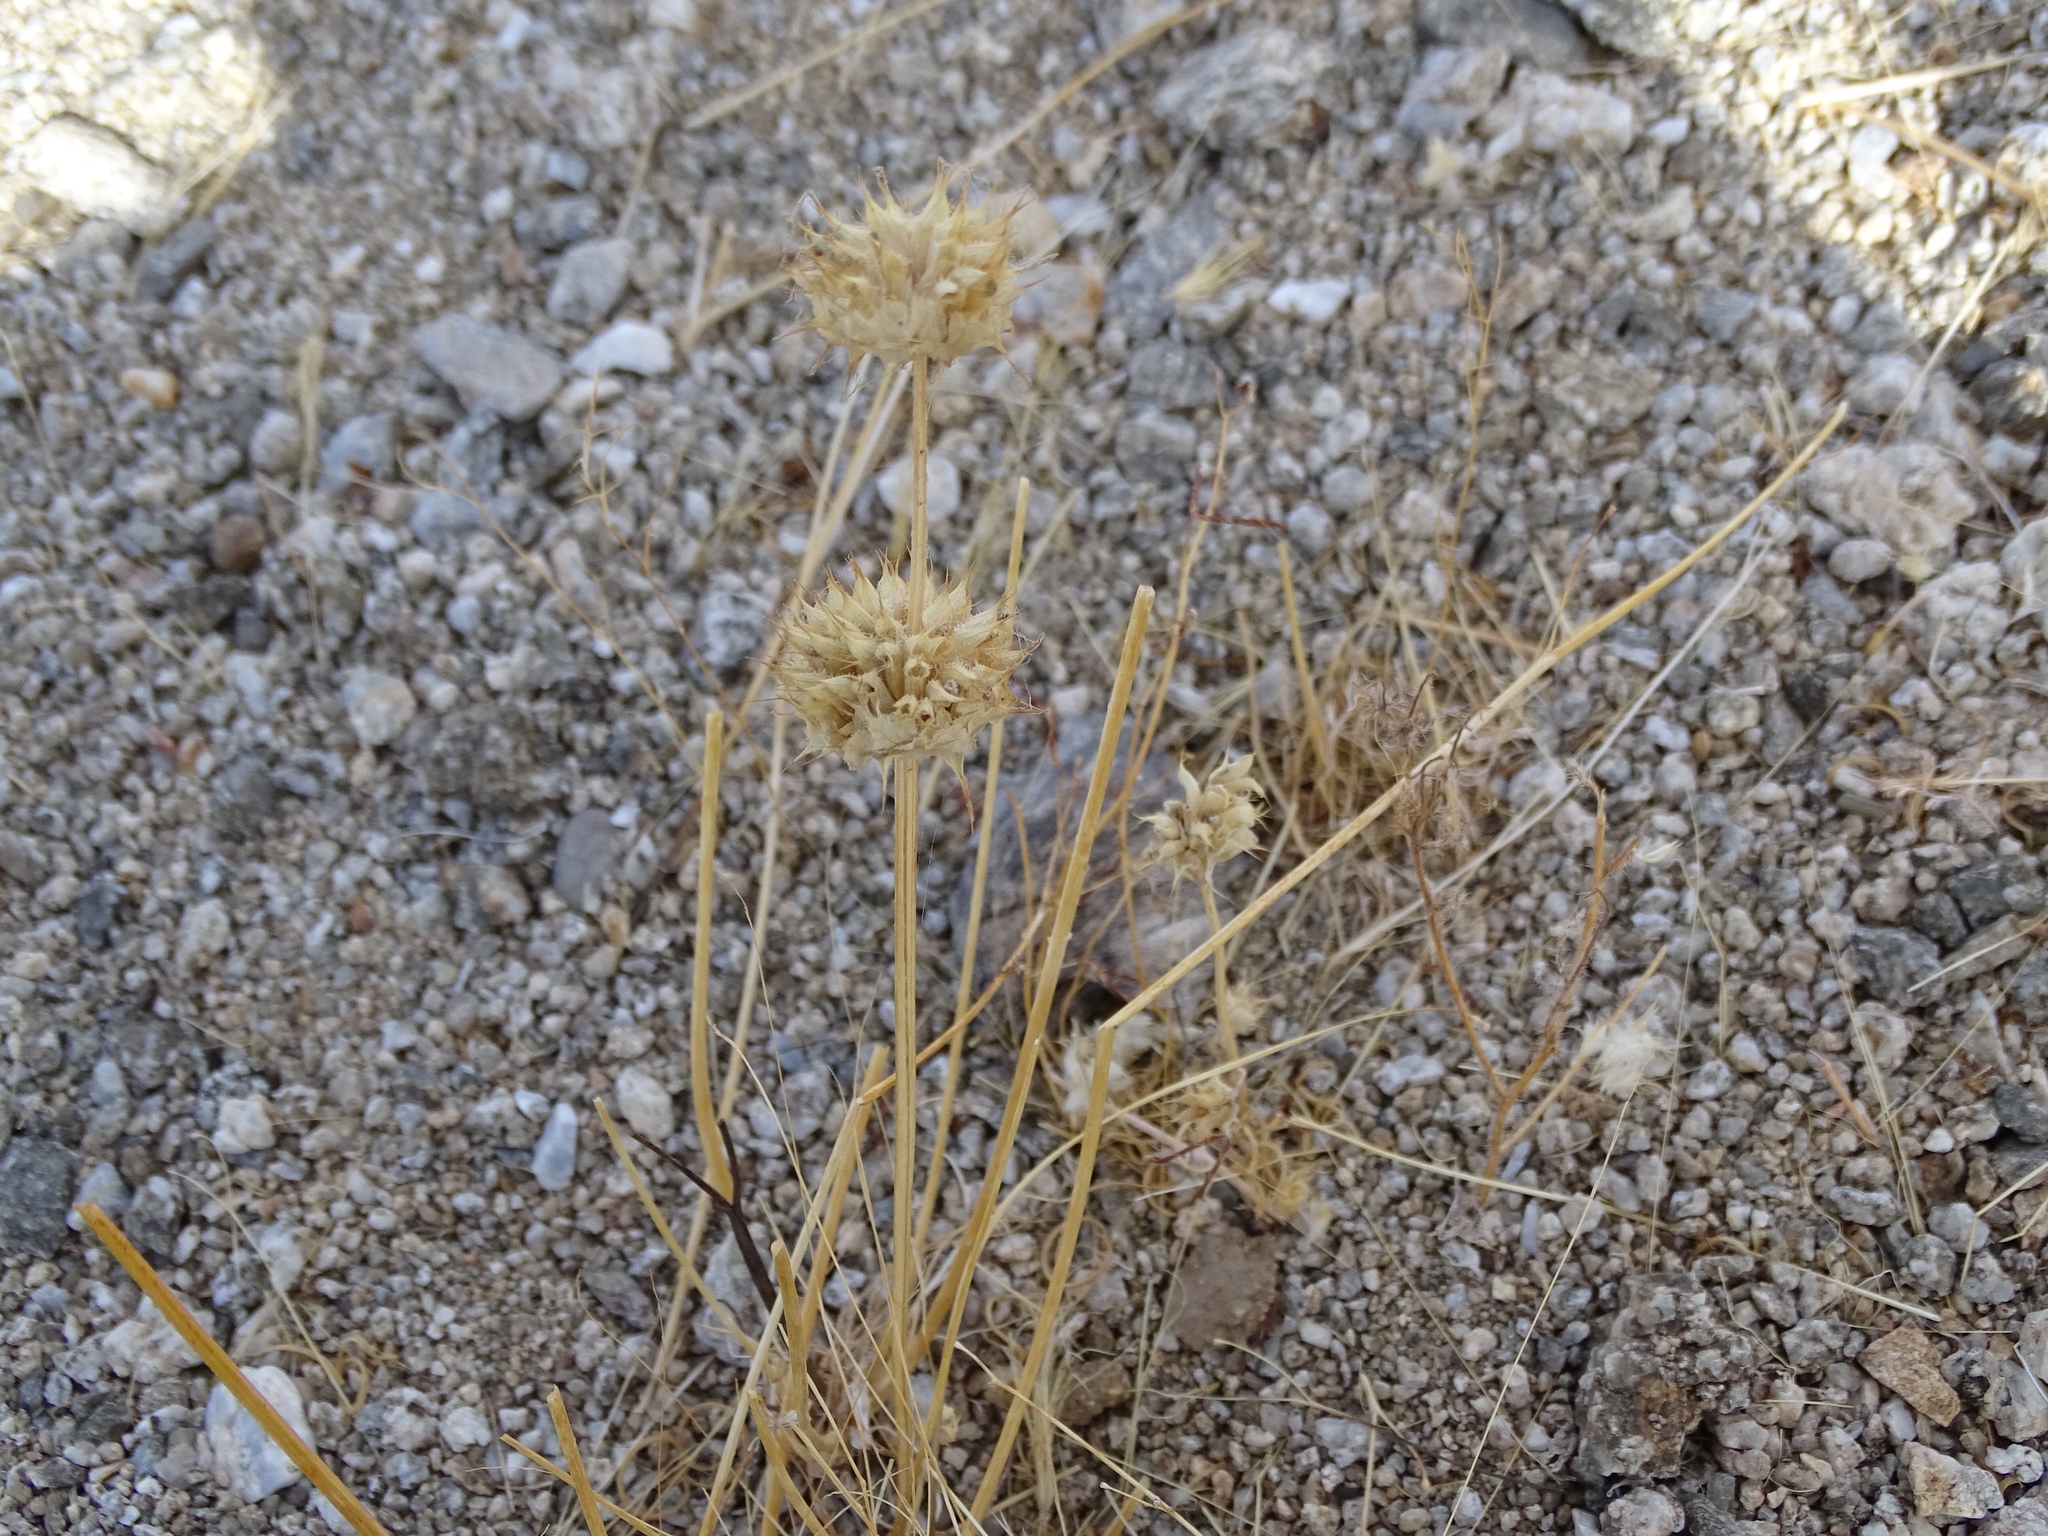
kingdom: Plantae
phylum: Tracheophyta
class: Magnoliopsida
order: Lamiales
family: Lamiaceae
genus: Salvia
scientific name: Salvia columbariae
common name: Chia
